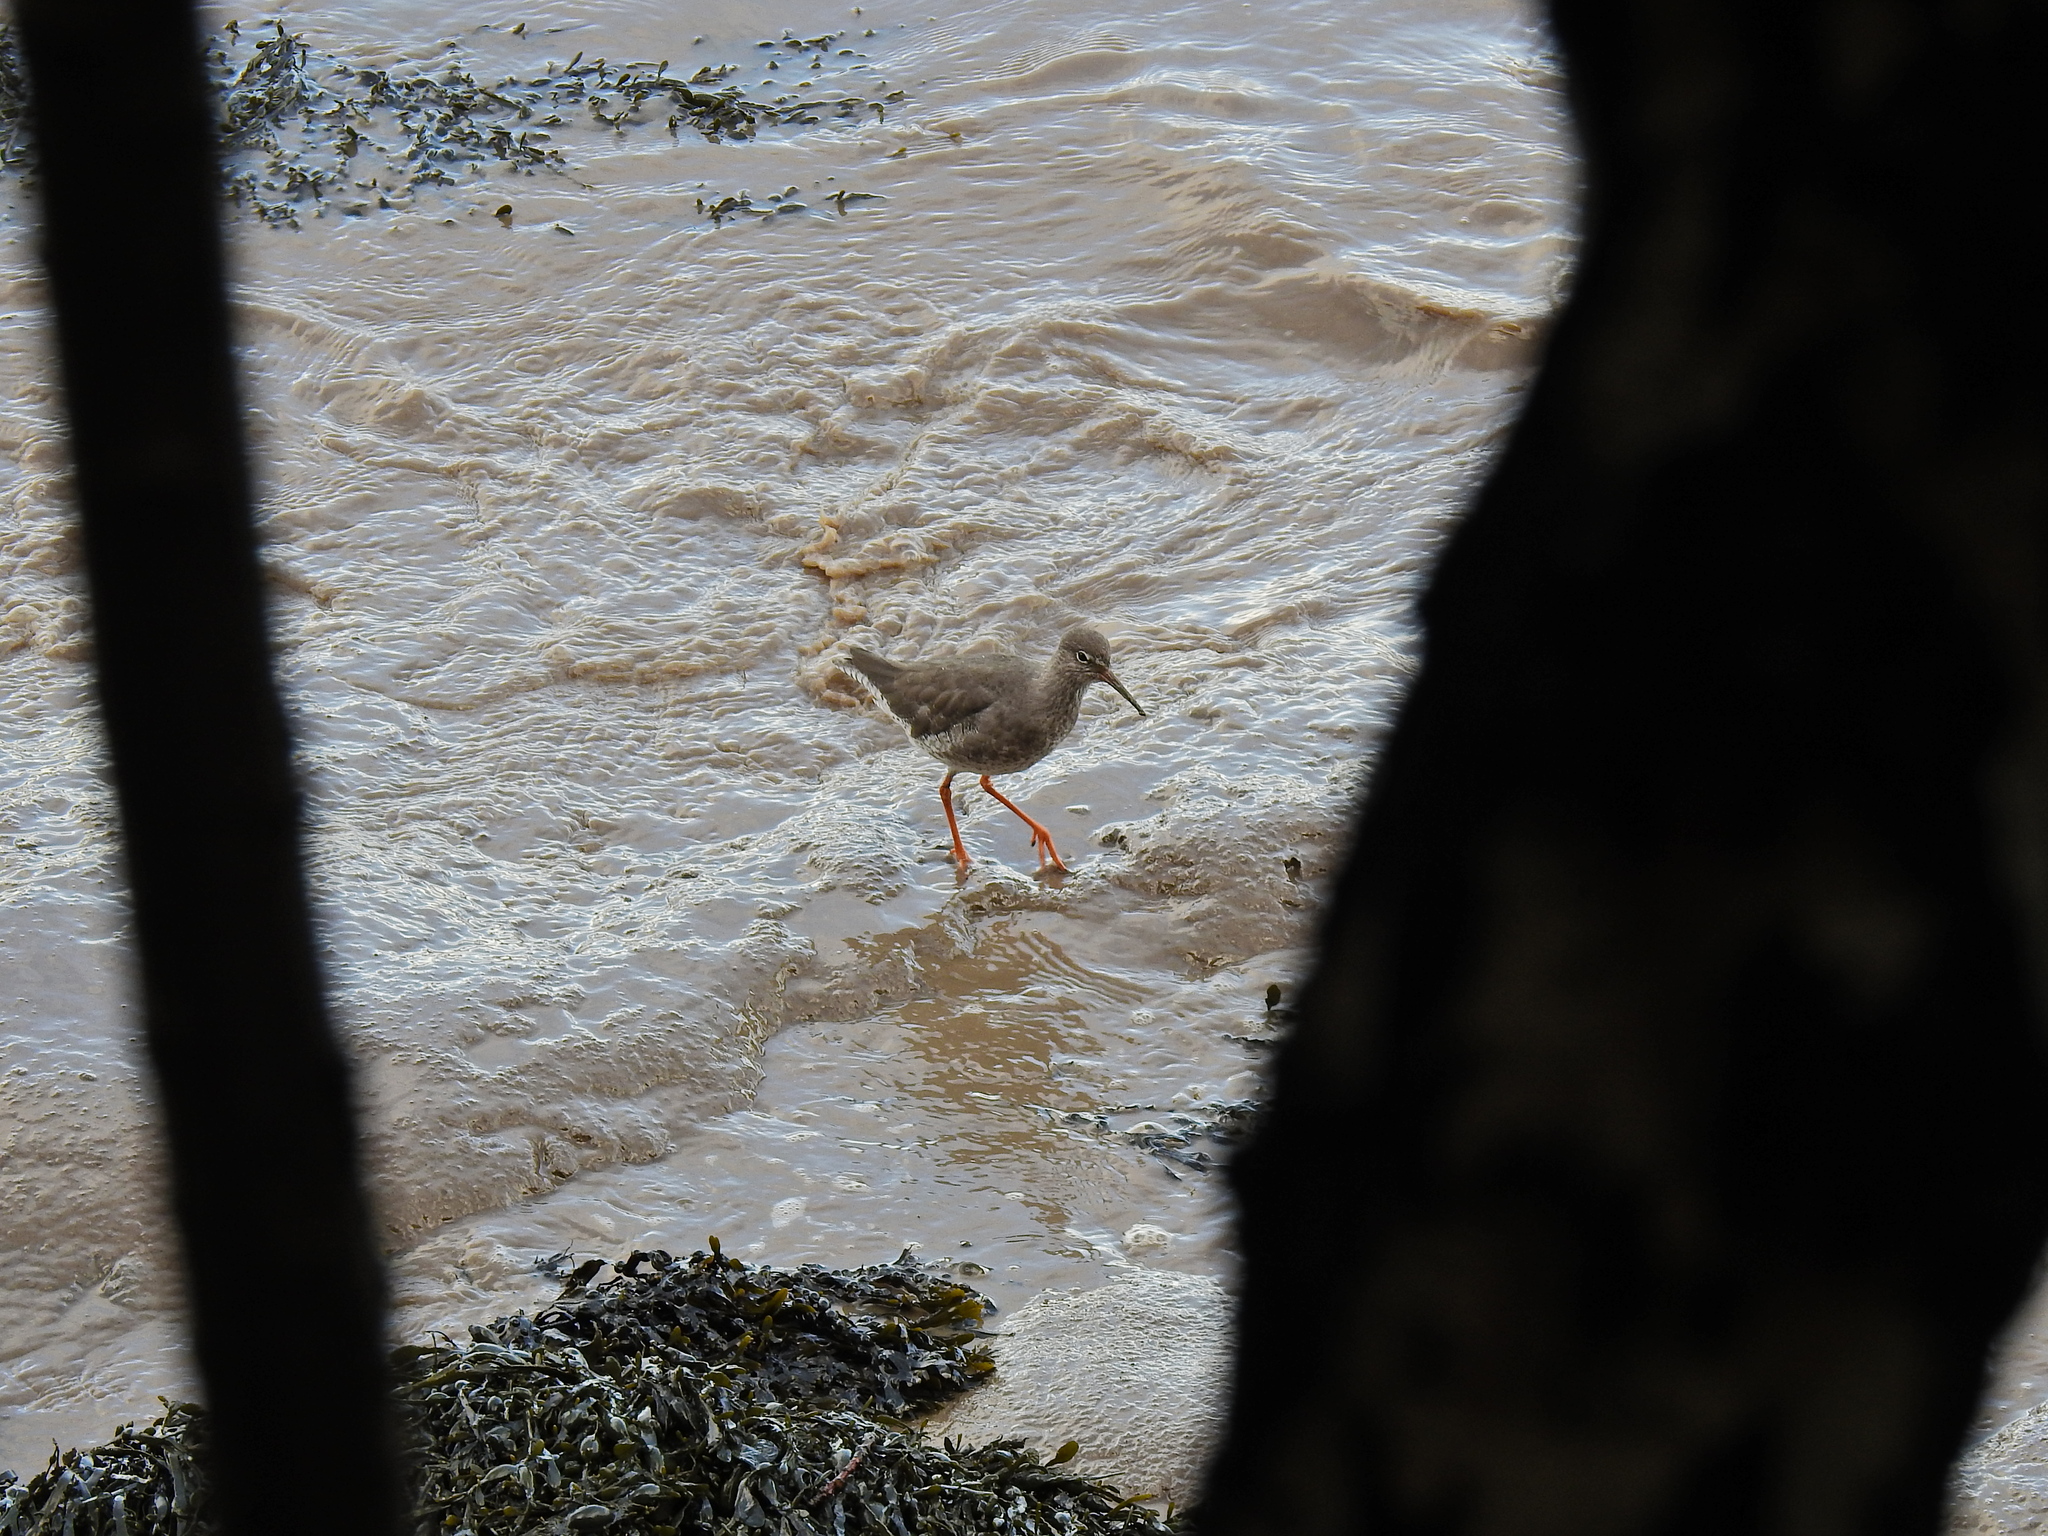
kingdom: Animalia
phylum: Chordata
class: Aves
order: Charadriiformes
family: Scolopacidae
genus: Tringa
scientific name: Tringa totanus
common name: Common redshank
